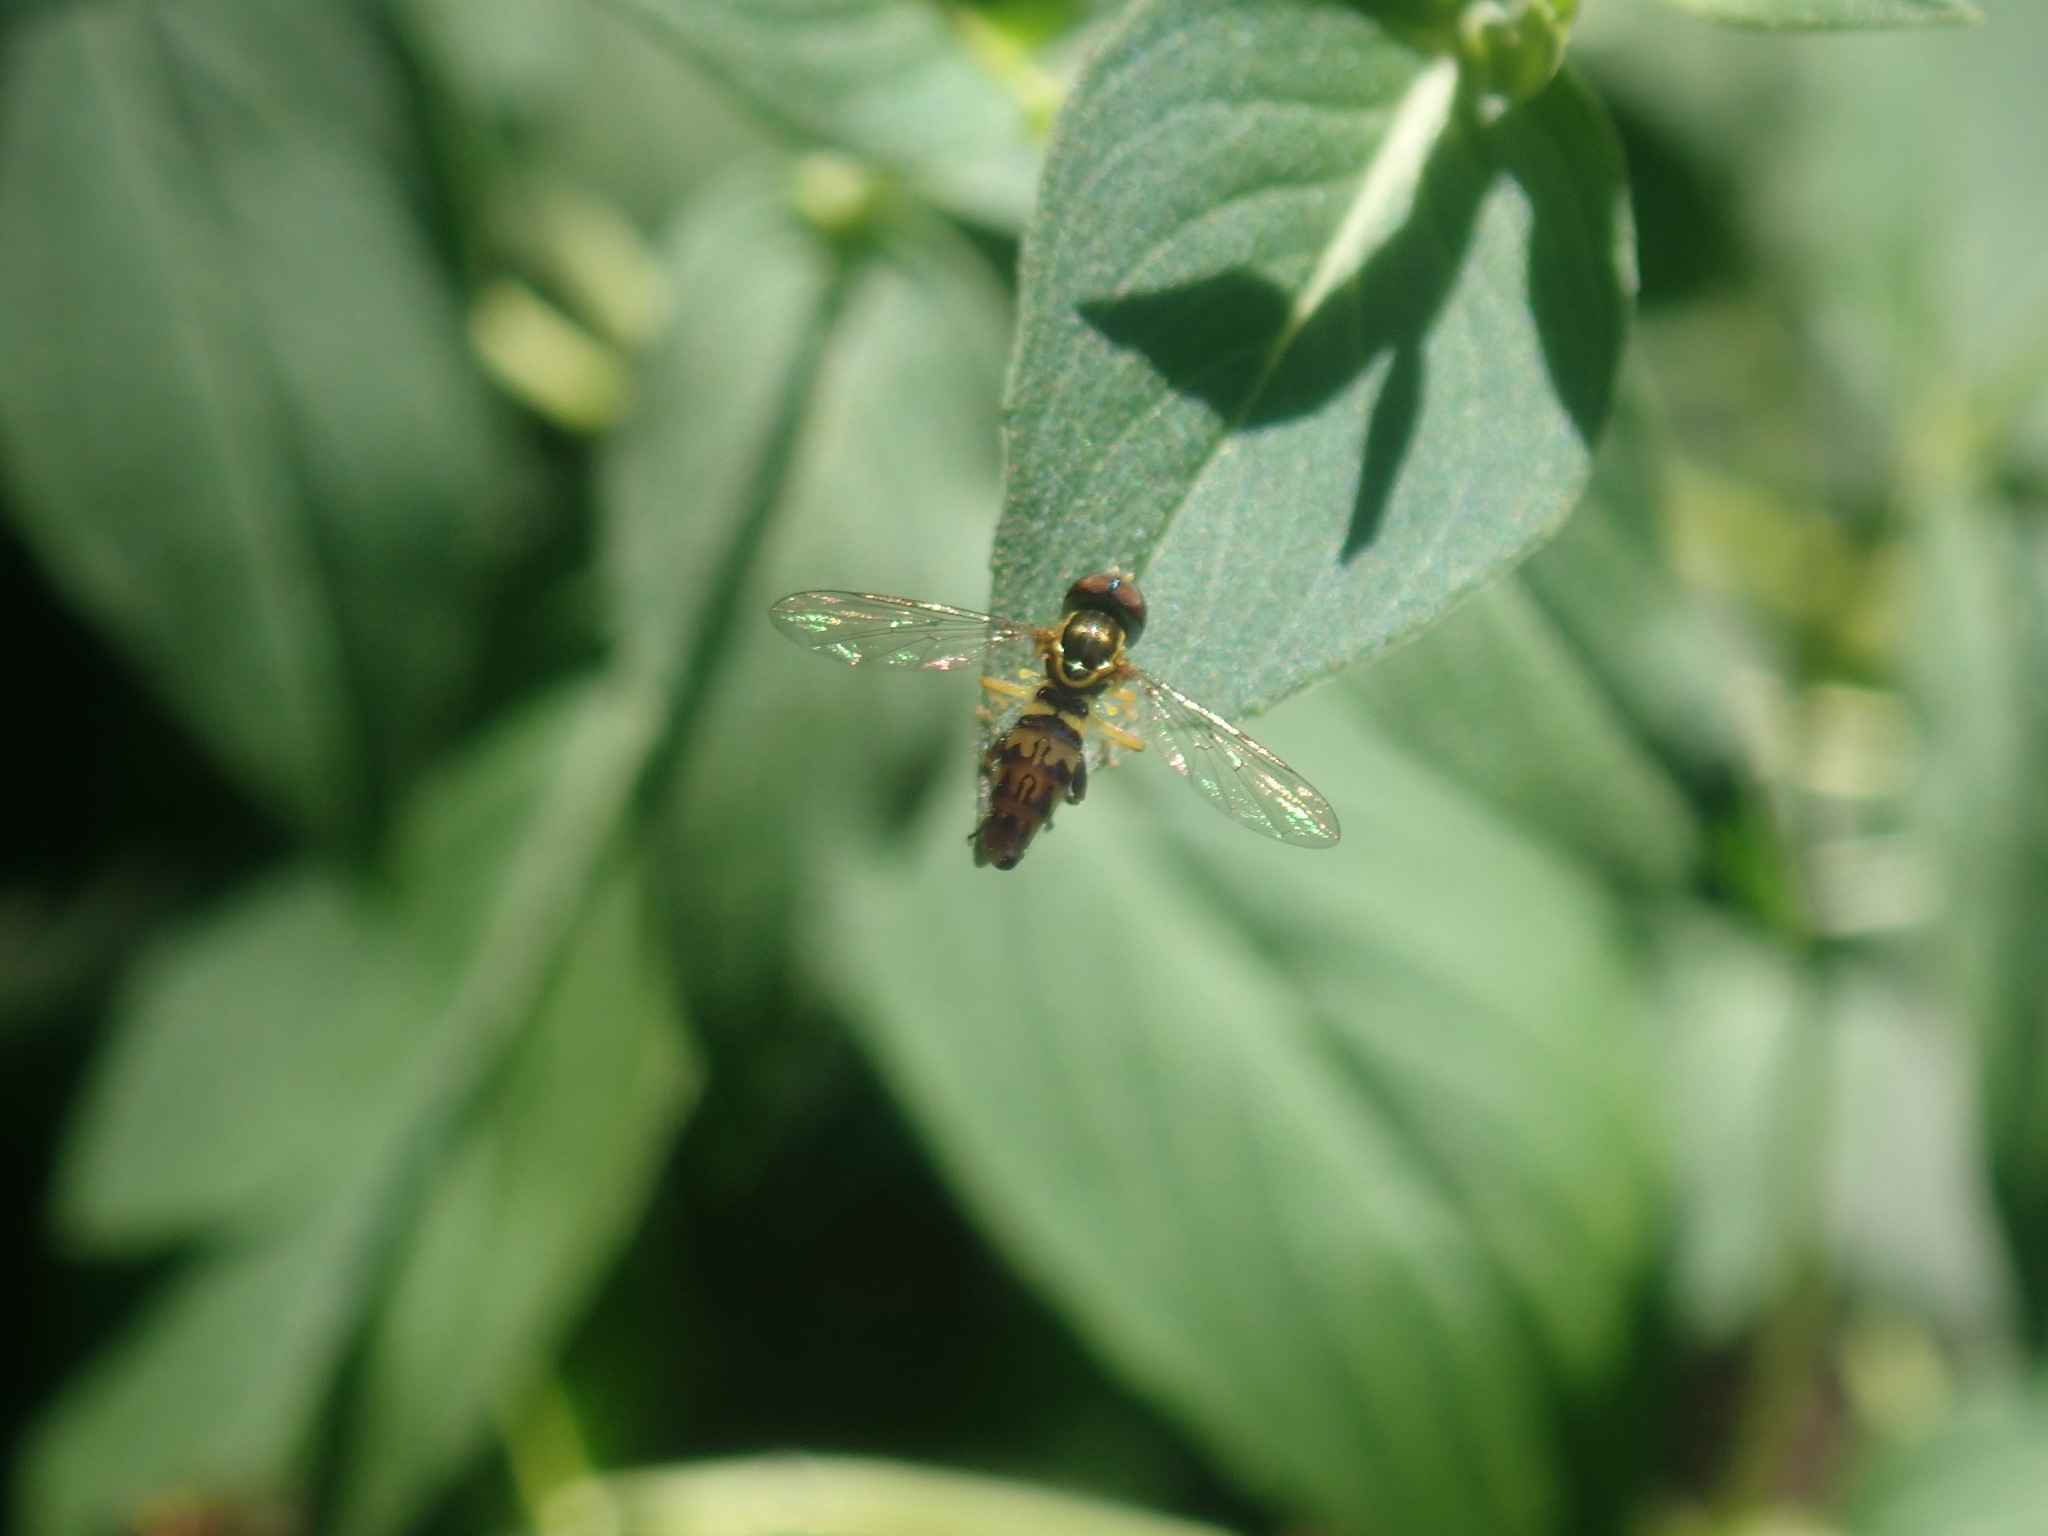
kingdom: Animalia
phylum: Arthropoda
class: Insecta
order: Diptera
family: Syrphidae
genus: Toxomerus
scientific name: Toxomerus geminatus
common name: Eastern calligrapher
